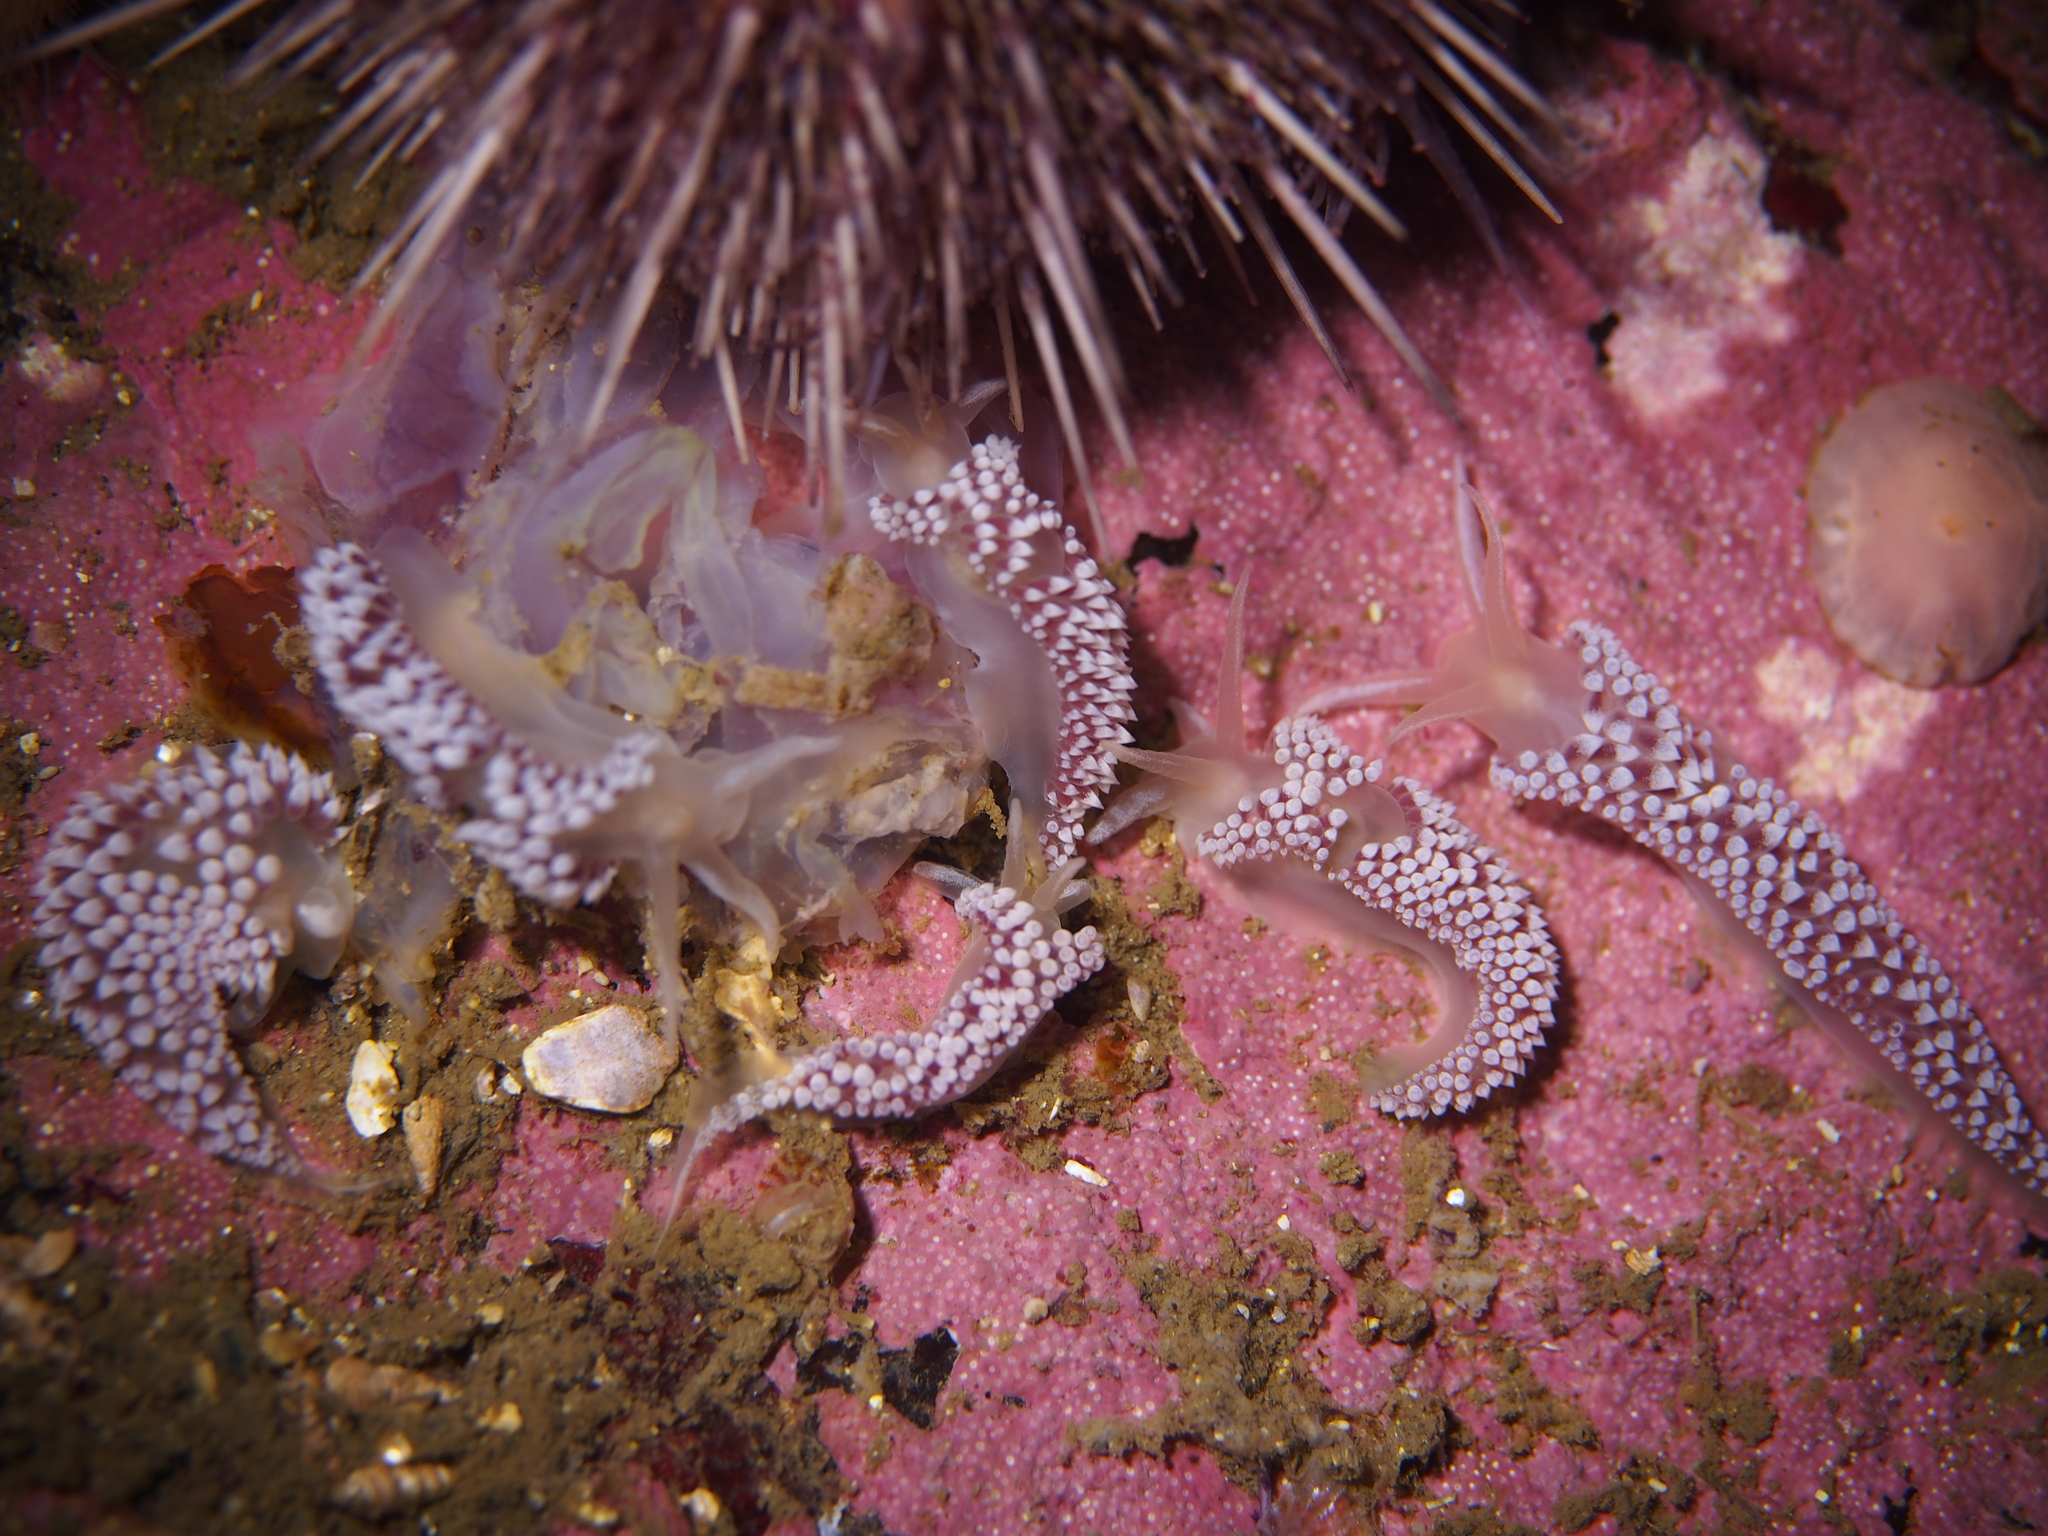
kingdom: Animalia
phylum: Mollusca
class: Gastropoda
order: Nudibranchia
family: Coryphellidae
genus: Coryphella
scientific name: Coryphella verrucosa
